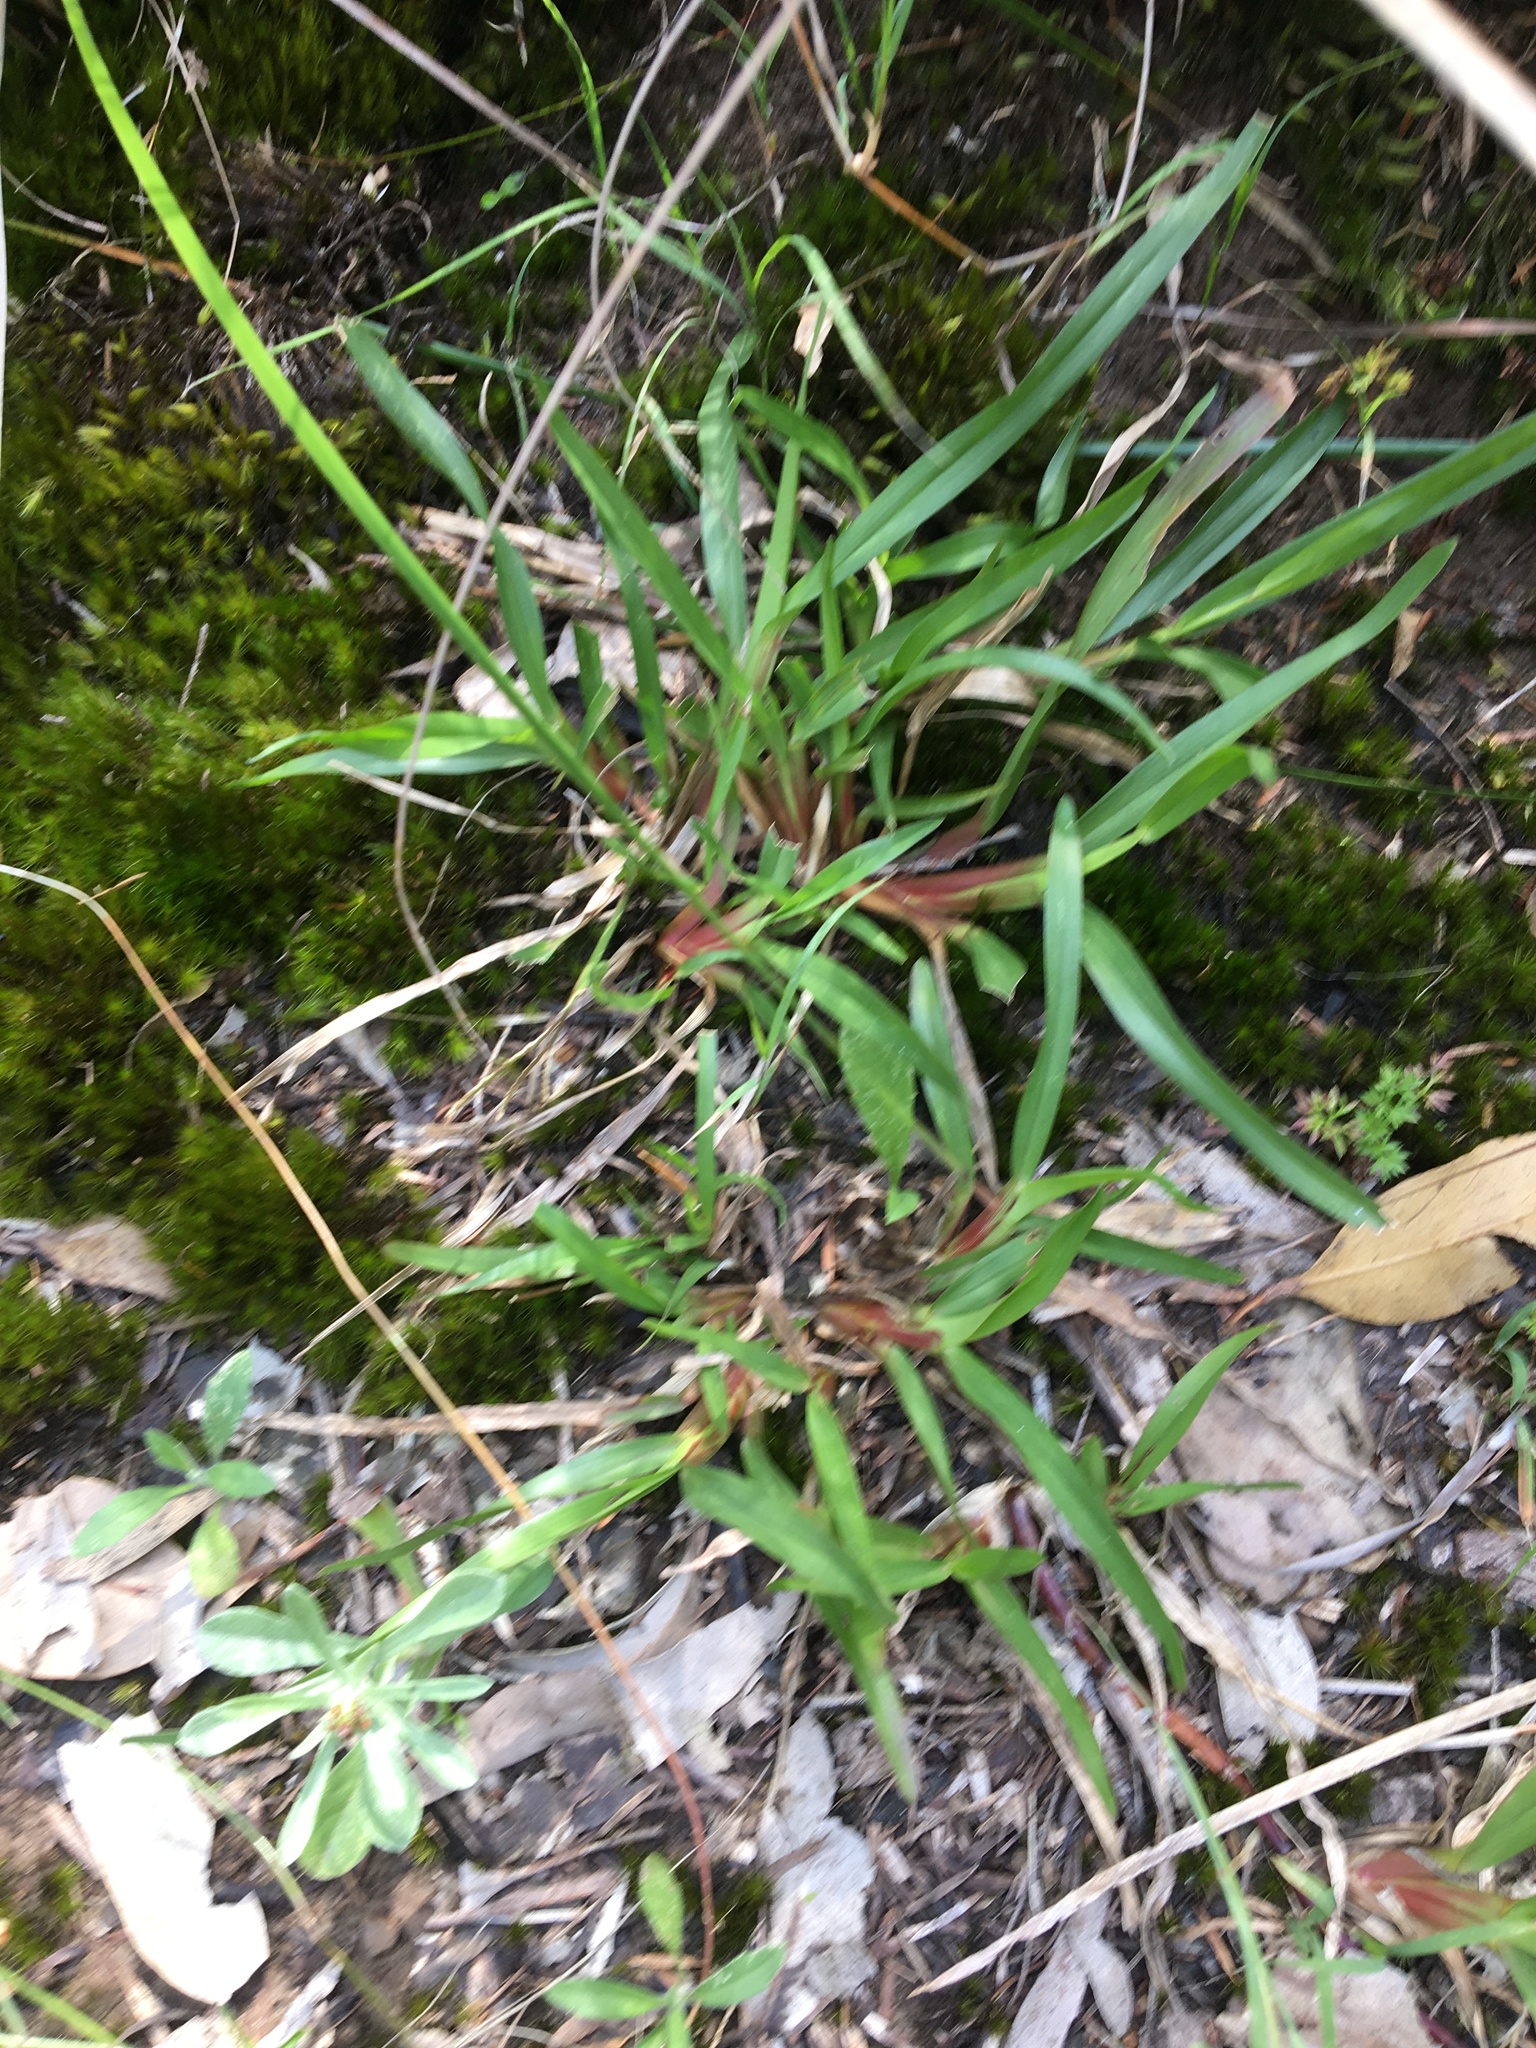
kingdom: Plantae
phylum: Tracheophyta
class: Liliopsida
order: Poales
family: Poaceae
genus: Stenotaphrum
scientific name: Stenotaphrum secundatum
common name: St. augustine grass
